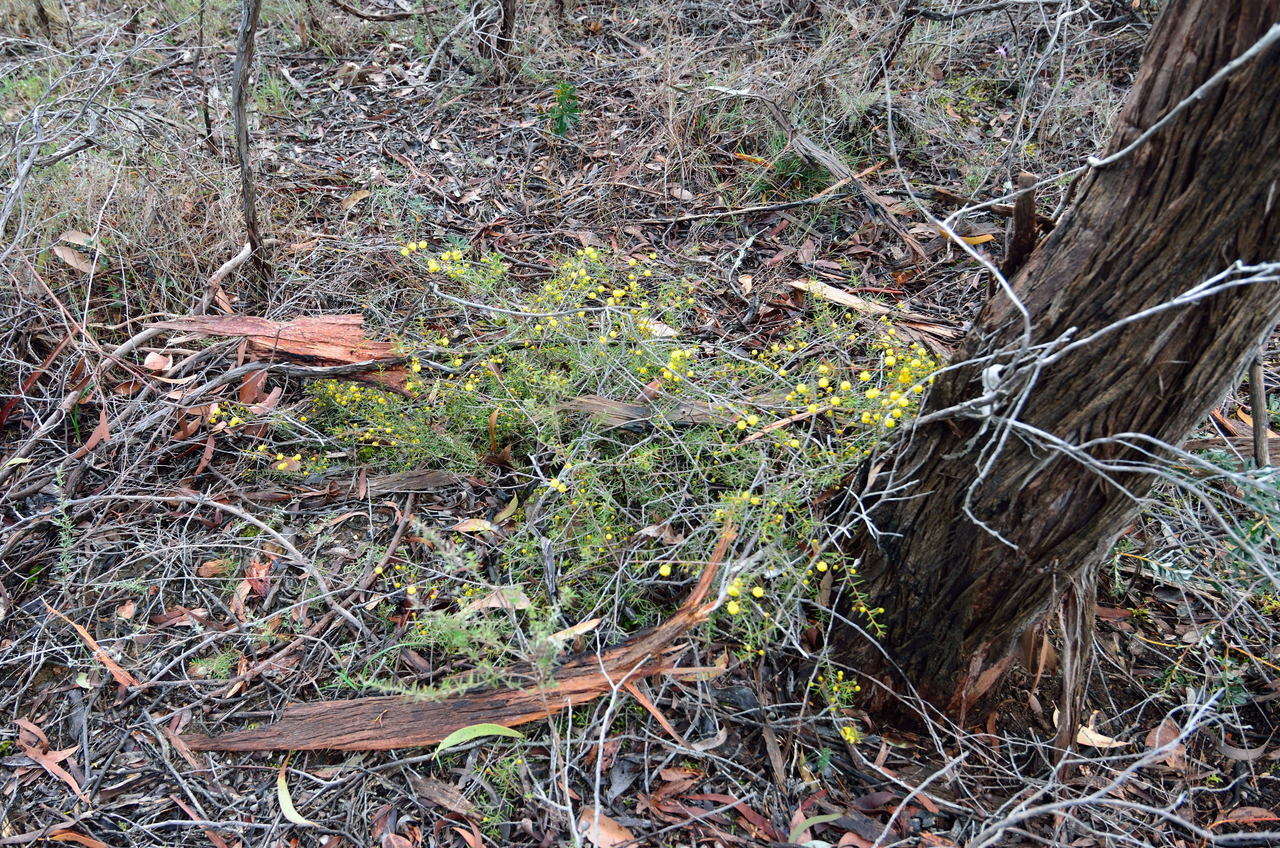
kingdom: Plantae
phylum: Tracheophyta
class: Magnoliopsida
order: Fabales
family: Fabaceae
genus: Acacia
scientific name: Acacia brownii
